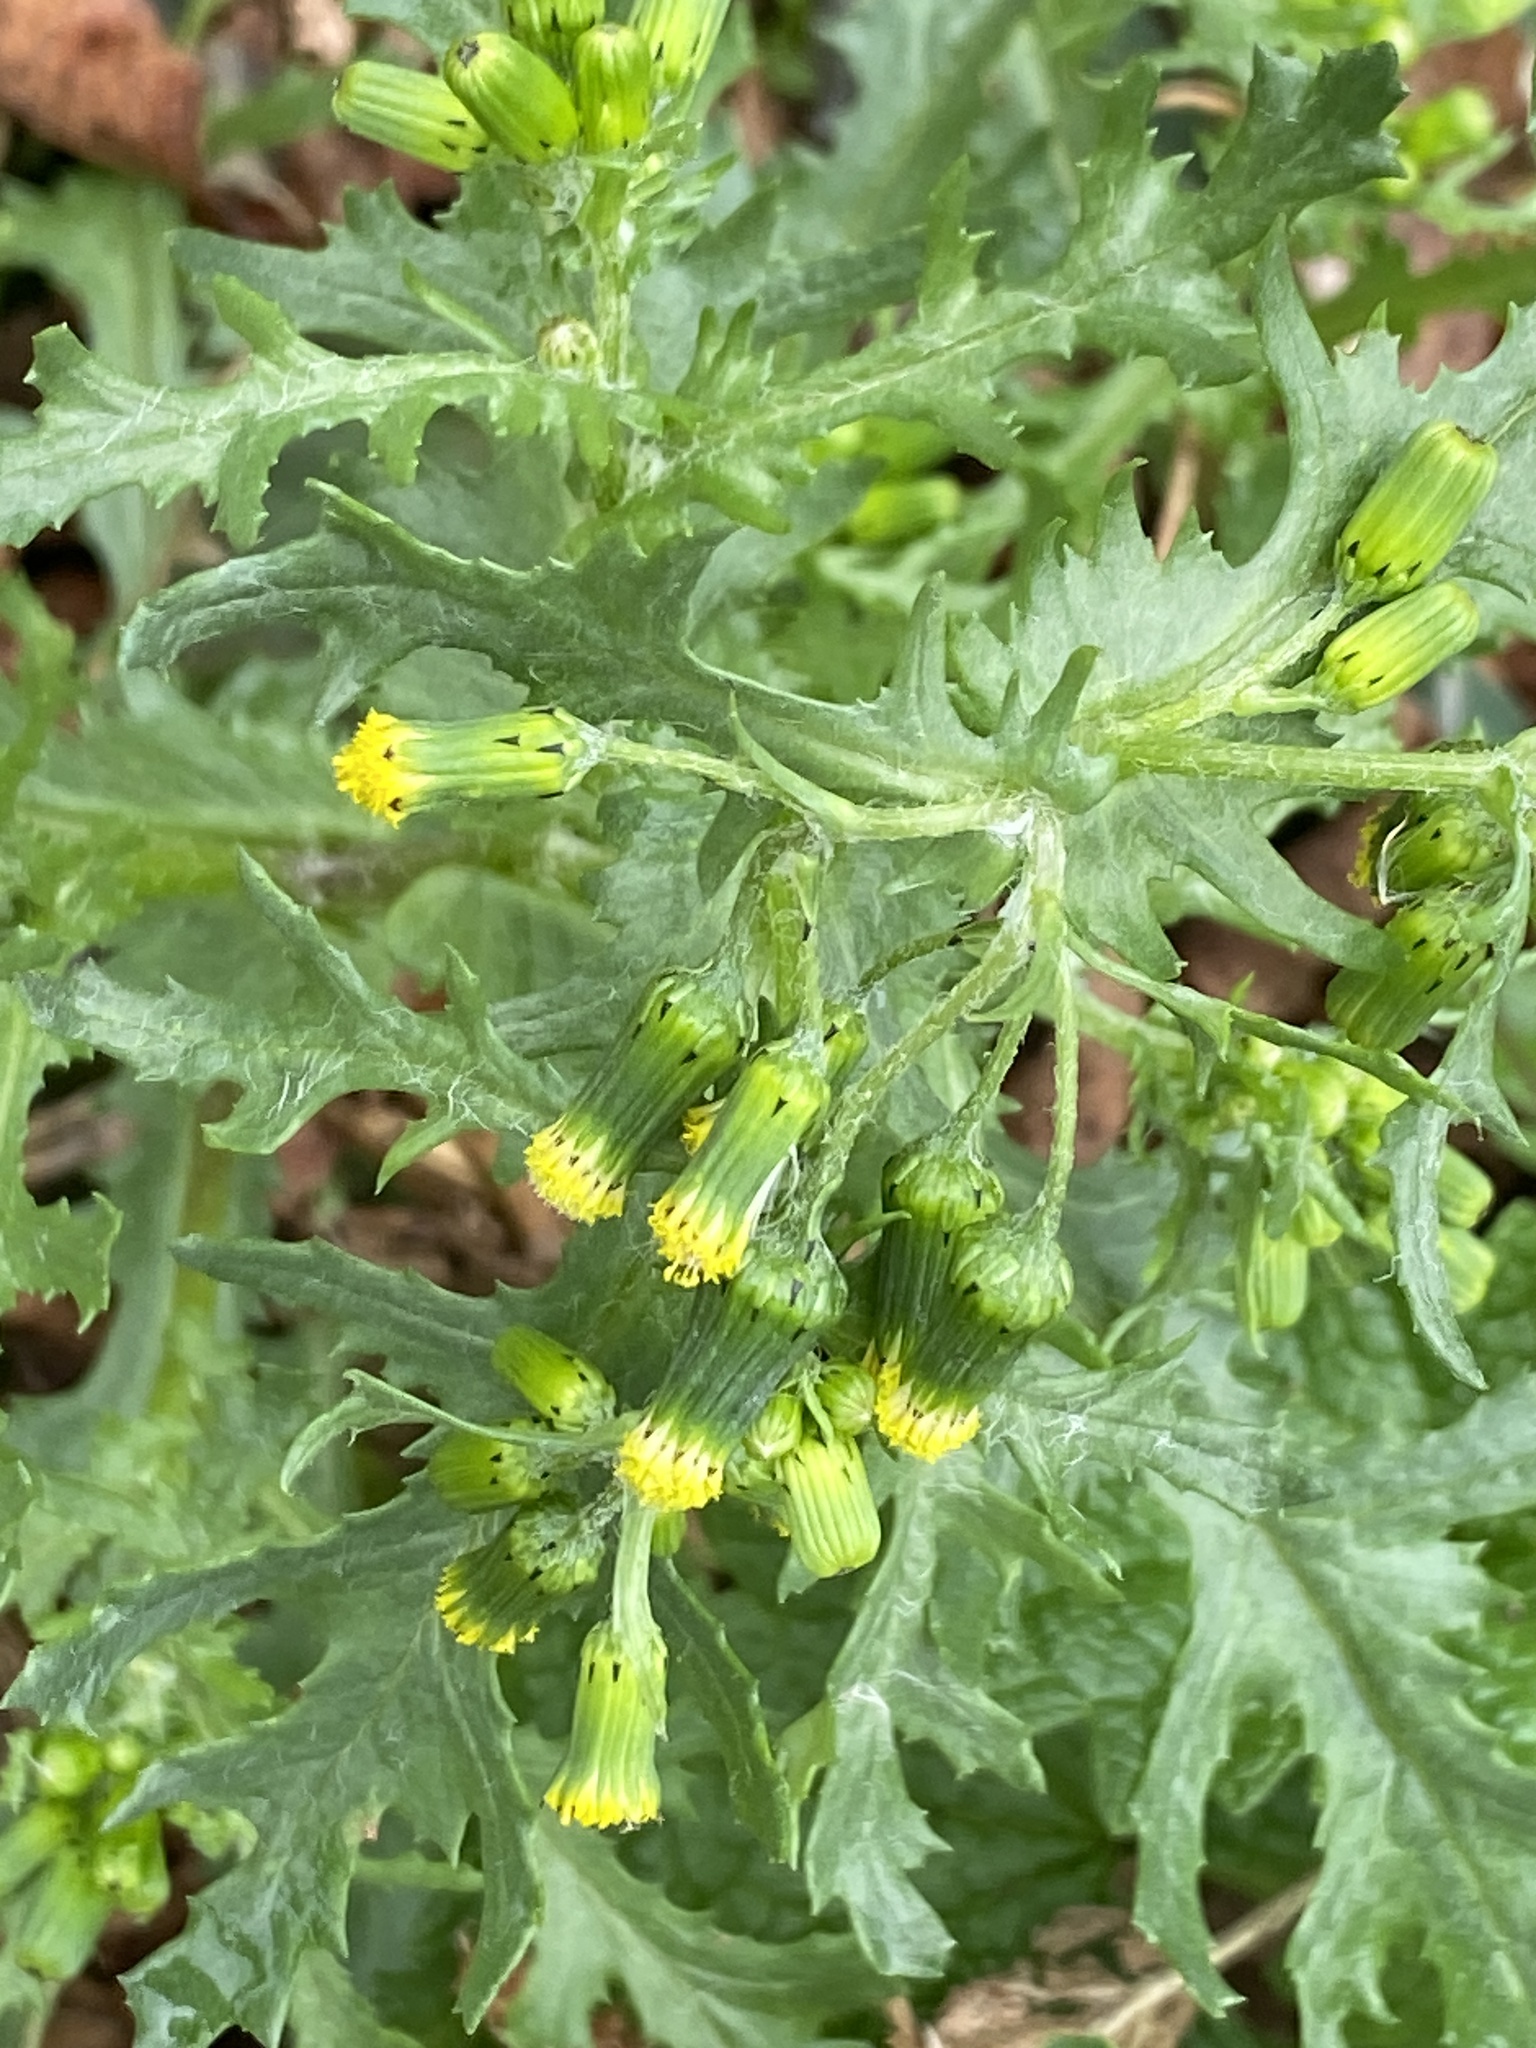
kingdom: Plantae
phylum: Tracheophyta
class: Magnoliopsida
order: Asterales
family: Asteraceae
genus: Senecio
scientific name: Senecio vulgaris
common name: Old-man-in-the-spring
